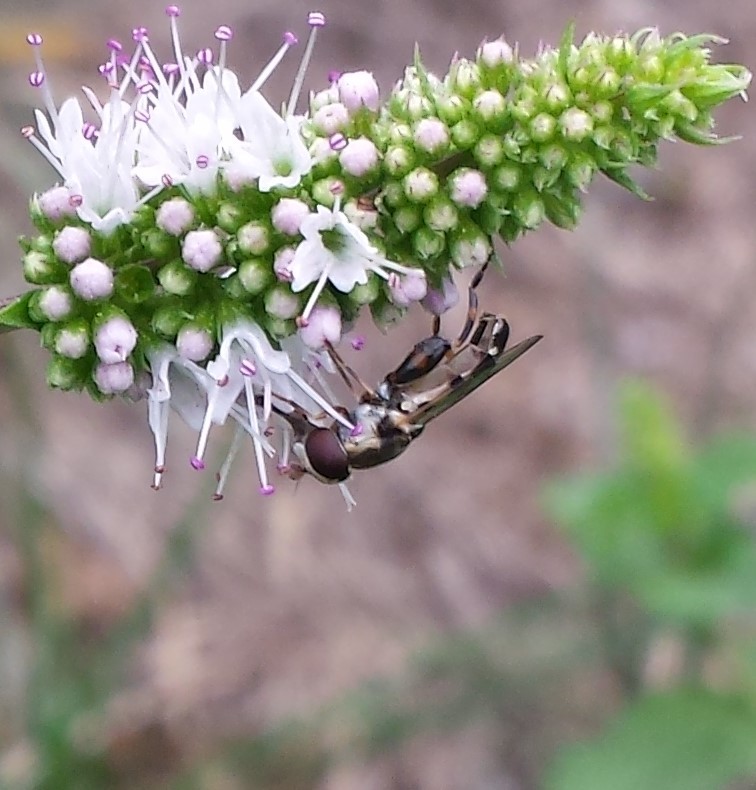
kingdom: Animalia
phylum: Arthropoda
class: Insecta
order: Diptera
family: Syrphidae
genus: Syritta
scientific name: Syritta pipiens
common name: Hover fly
